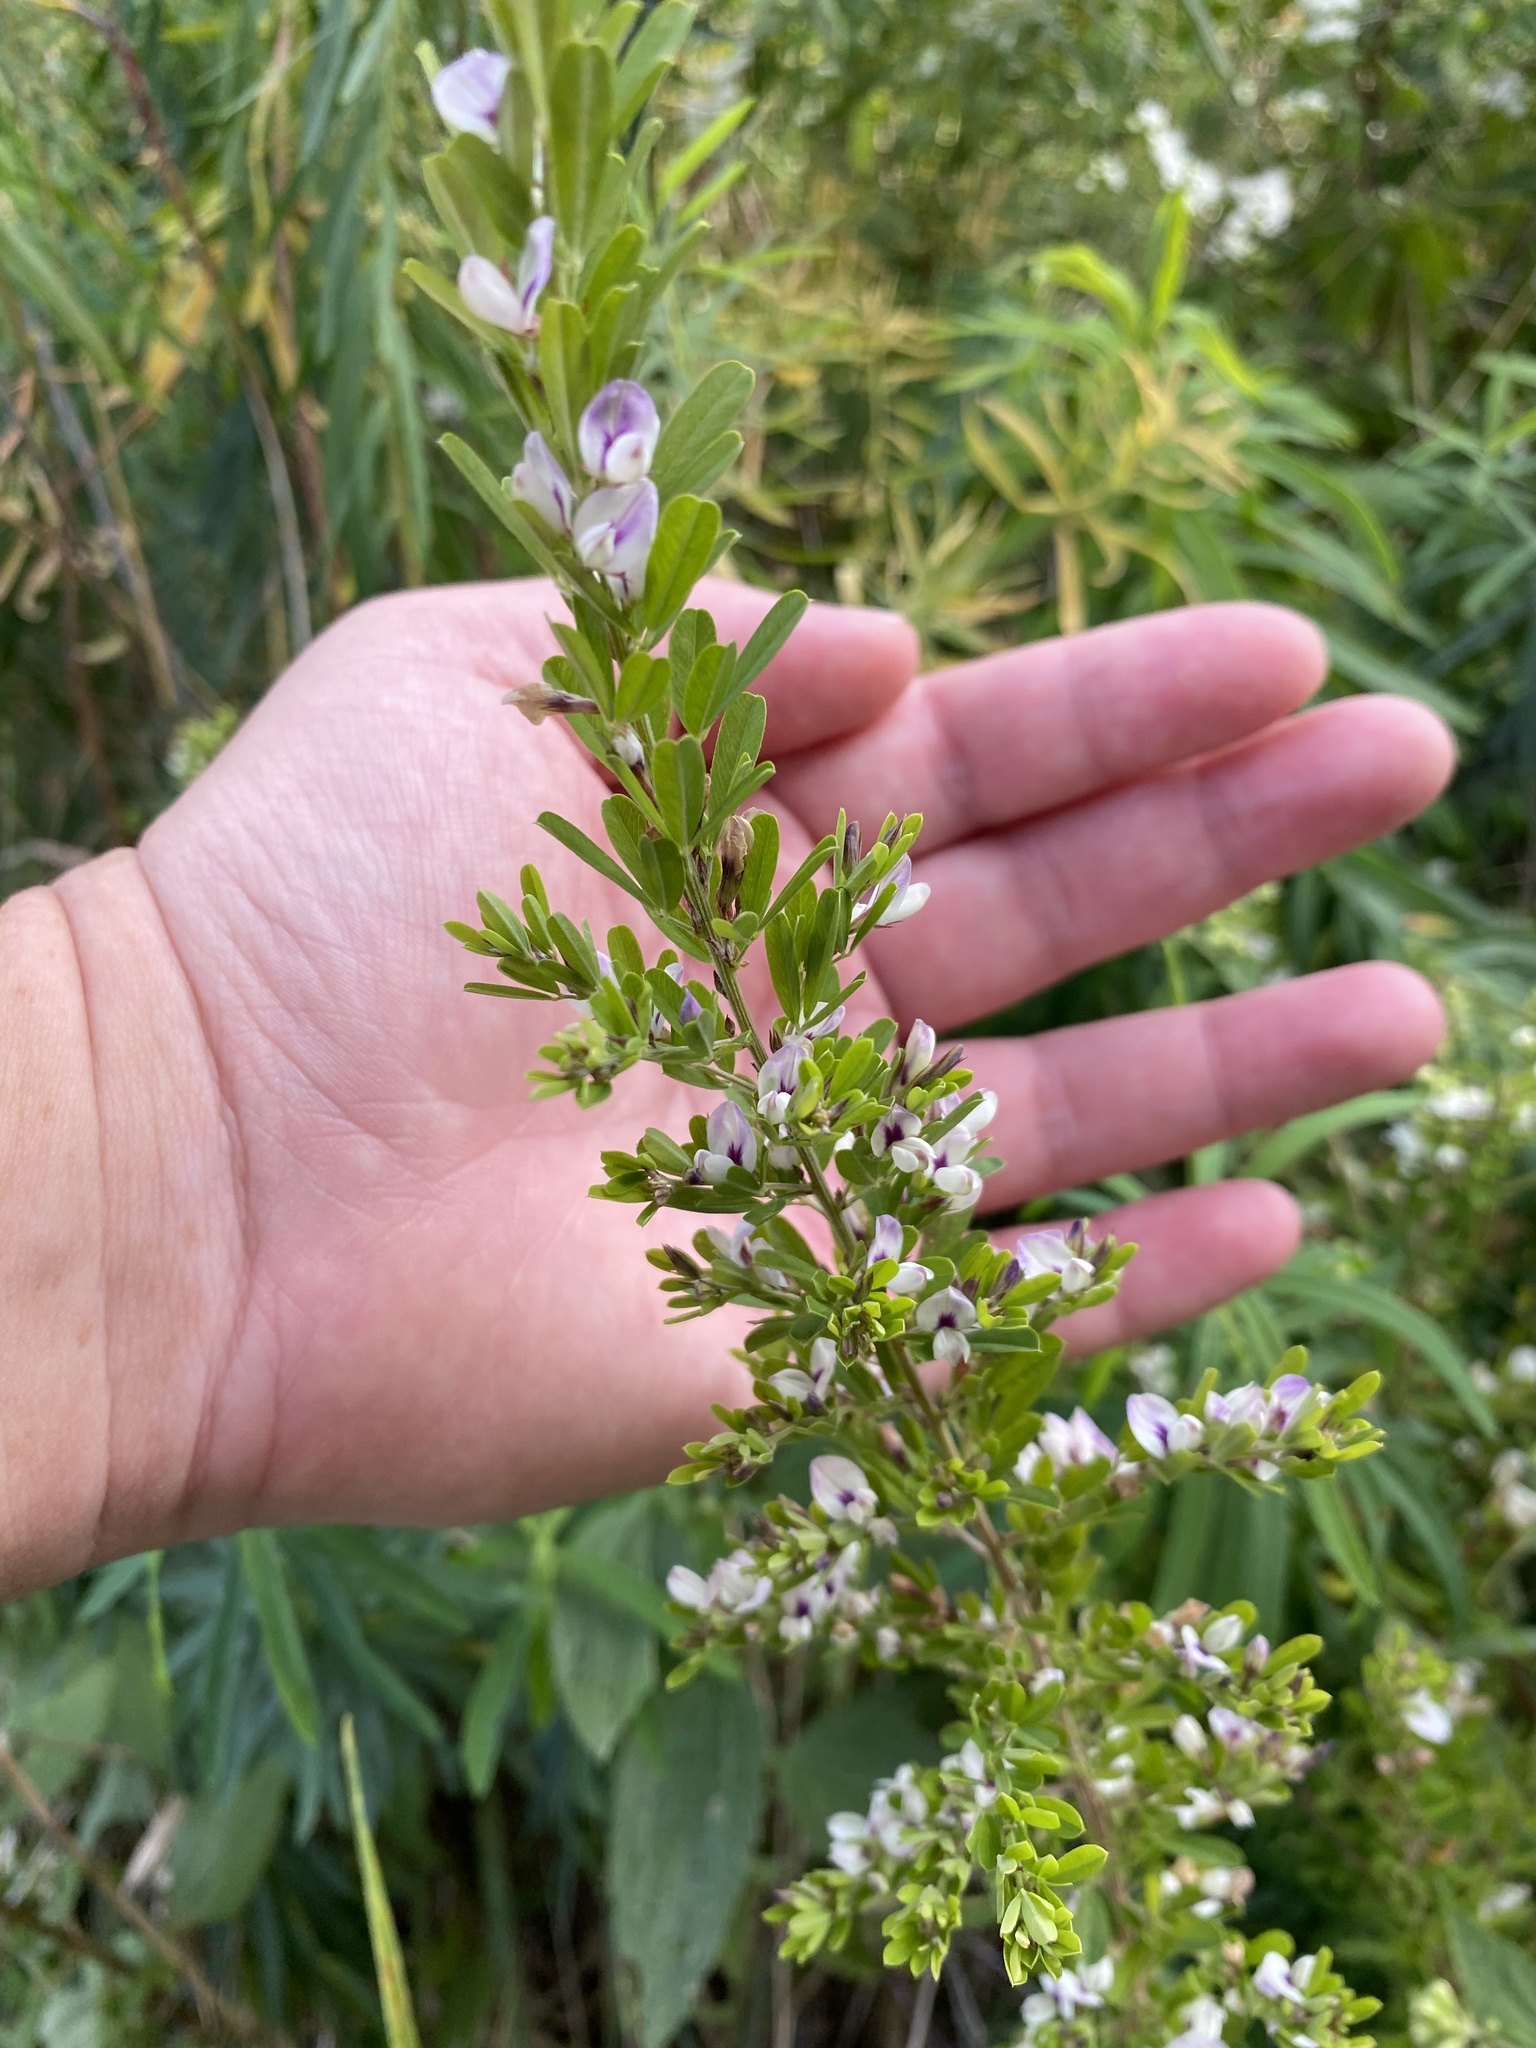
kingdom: Plantae
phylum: Tracheophyta
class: Magnoliopsida
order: Fabales
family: Fabaceae
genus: Lespedeza
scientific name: Lespedeza cuneata
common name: Chinese bush-clover
